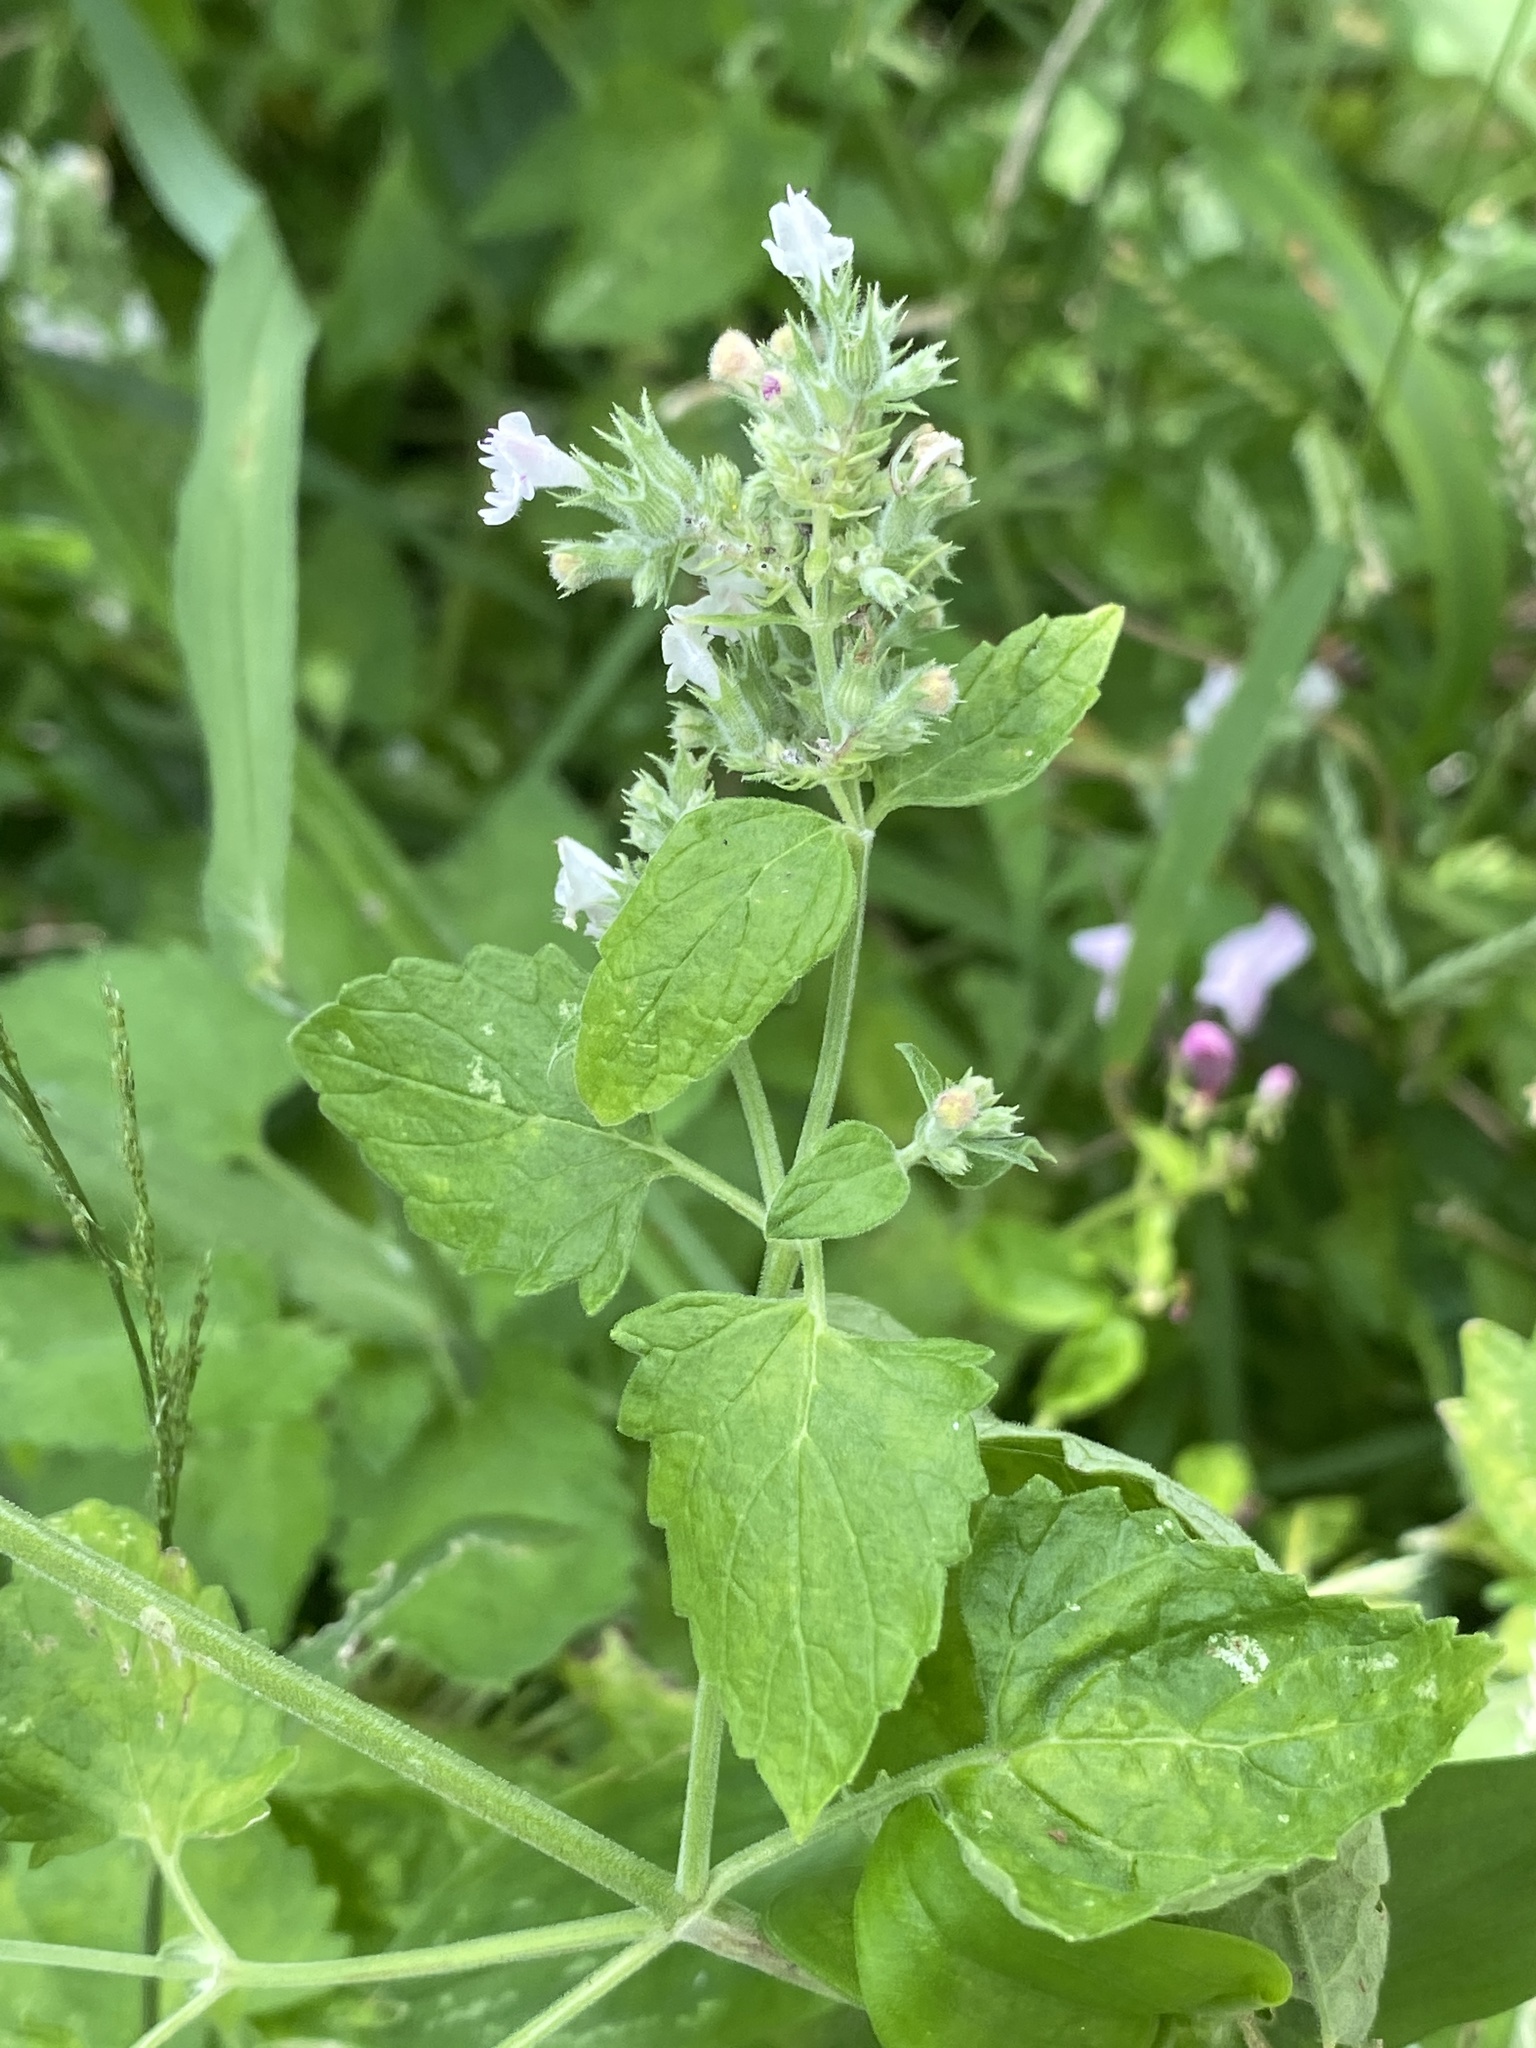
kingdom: Plantae
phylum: Tracheophyta
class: Magnoliopsida
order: Lamiales
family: Lamiaceae
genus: Nepeta
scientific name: Nepeta cataria
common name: Catnip
